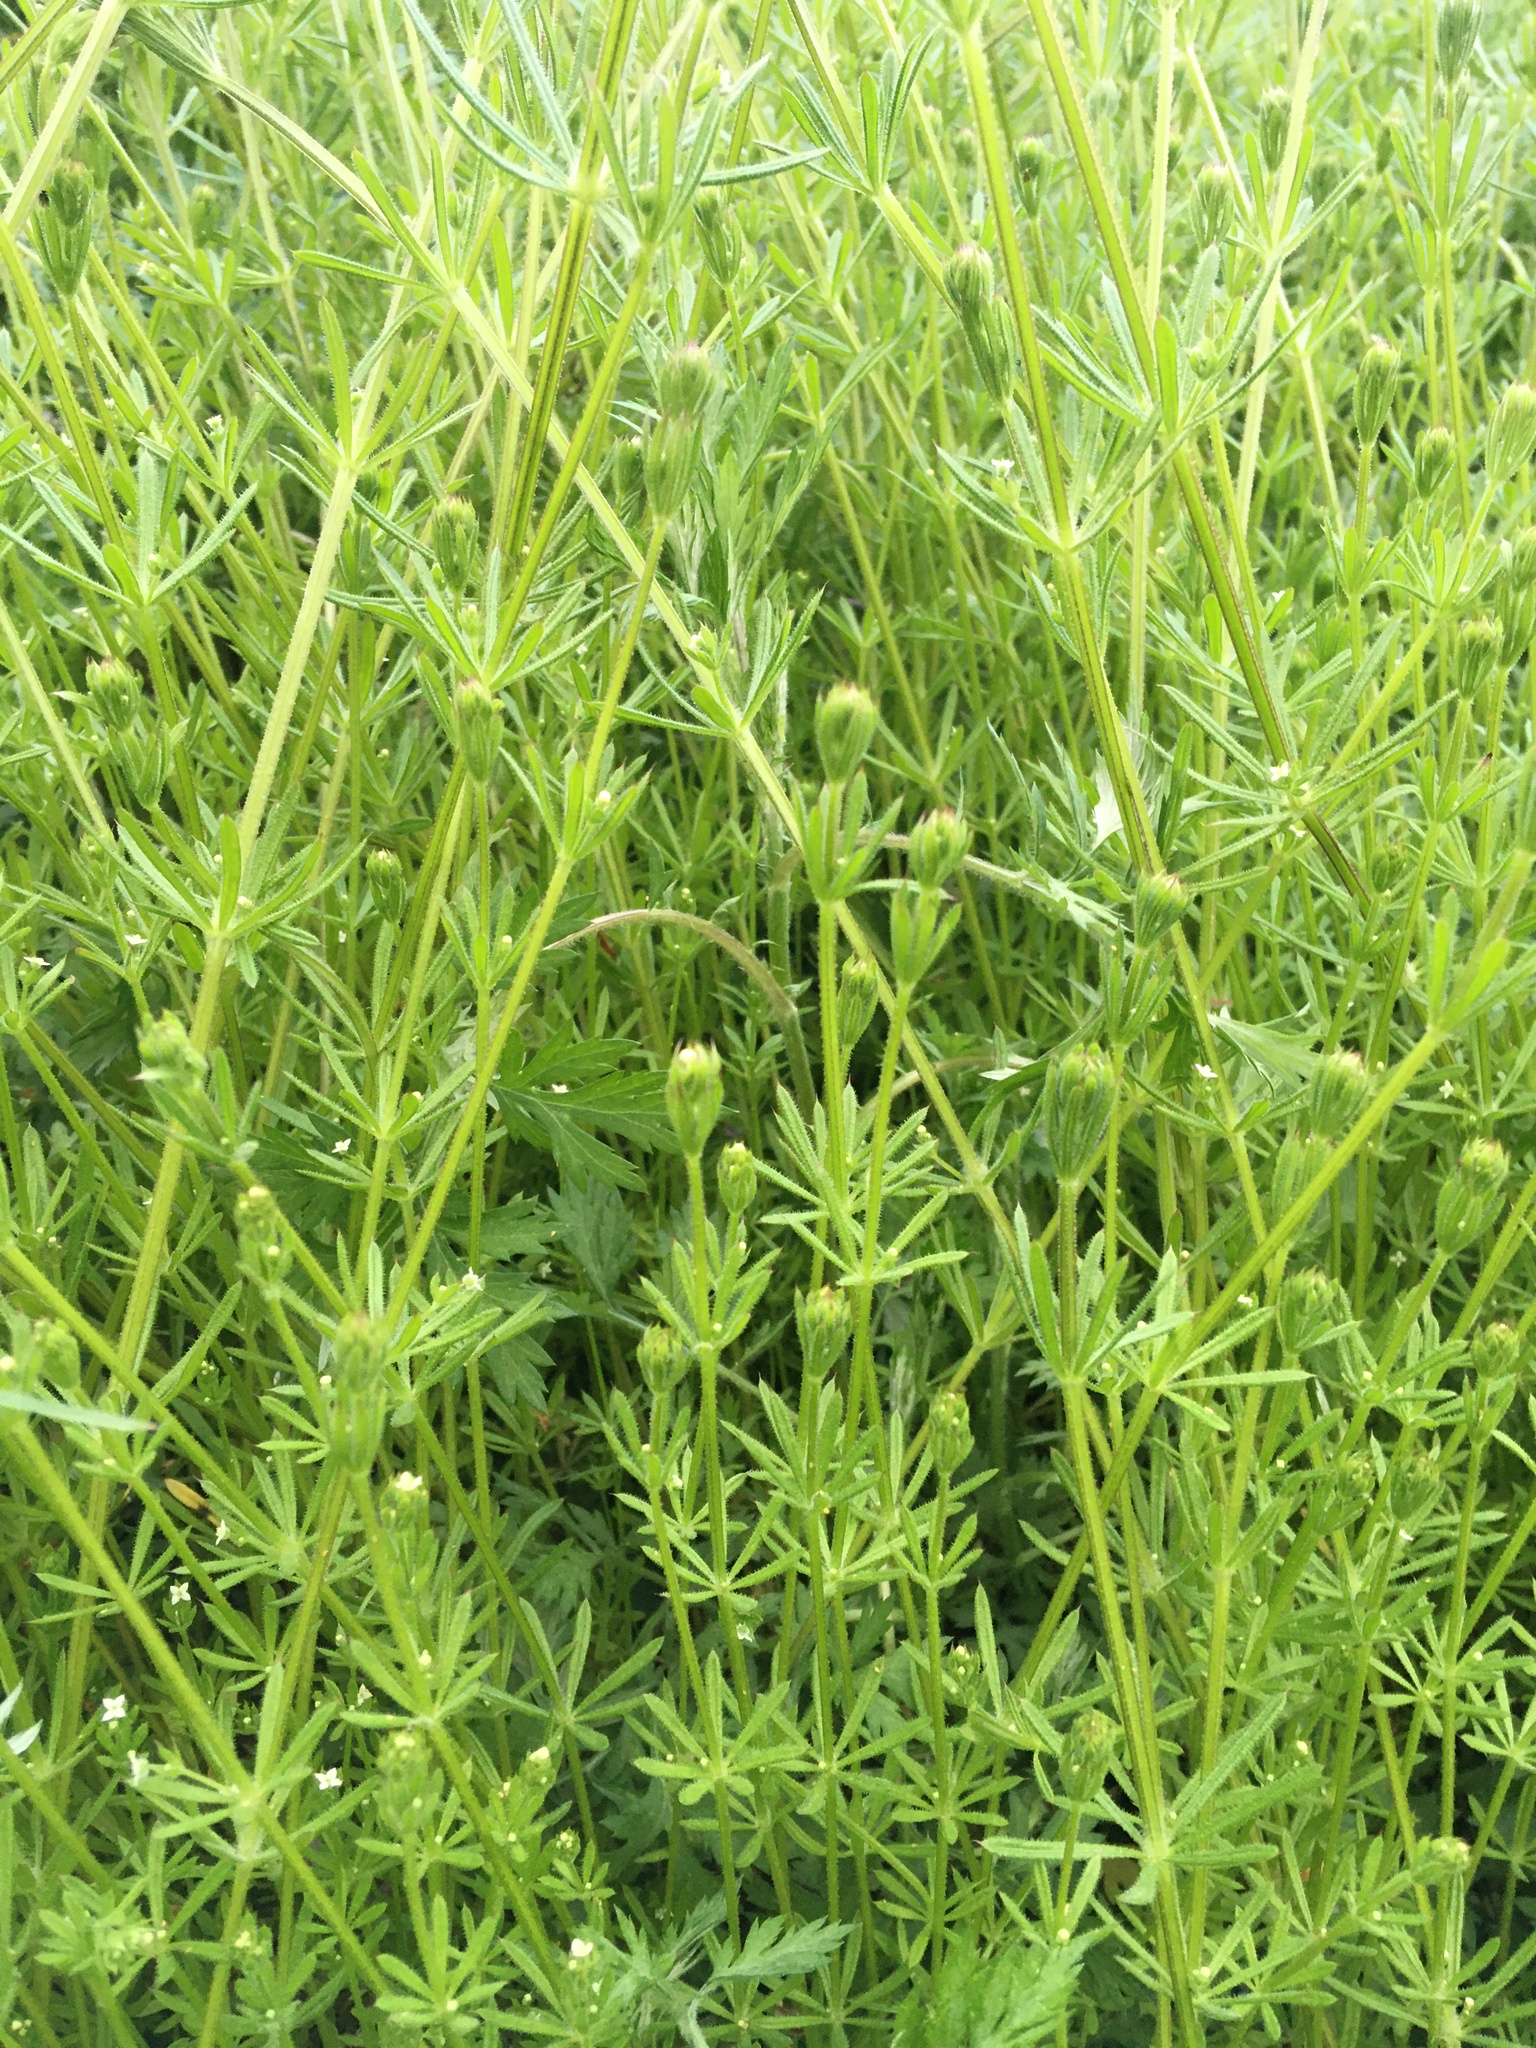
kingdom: Plantae
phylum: Tracheophyta
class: Magnoliopsida
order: Gentianales
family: Rubiaceae
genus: Galium
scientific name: Galium aparine
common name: Cleavers
